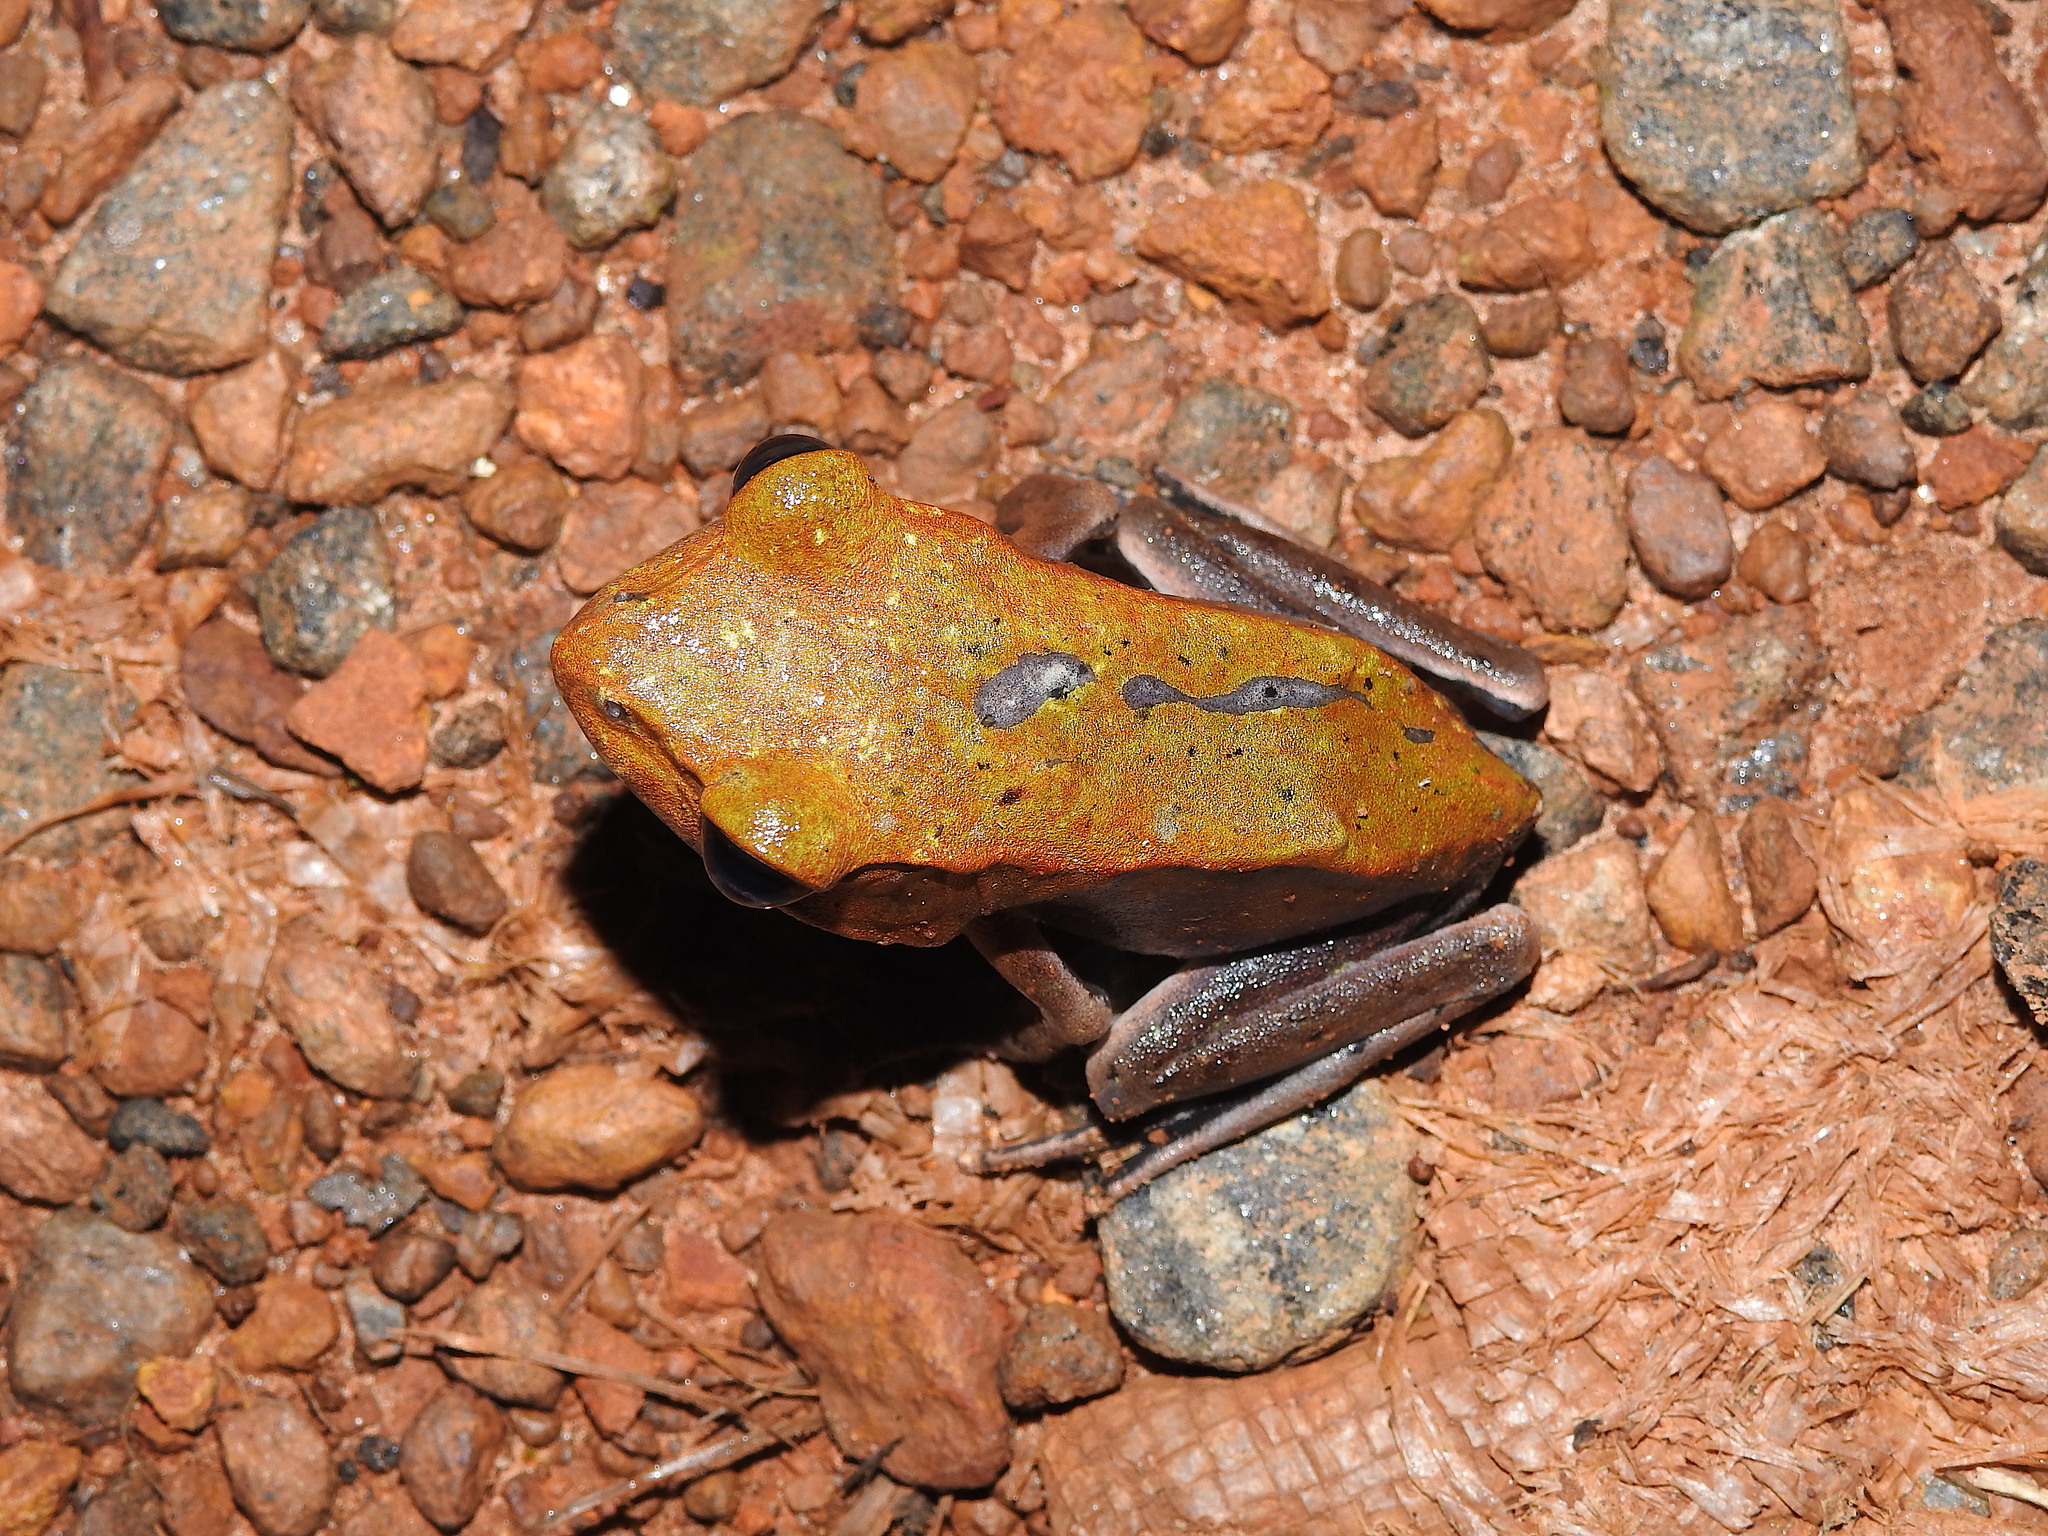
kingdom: Animalia
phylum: Chordata
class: Amphibia
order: Anura
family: Ranidae
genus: Clinotarsus
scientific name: Clinotarsus curtipes
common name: Bicoloured frog
